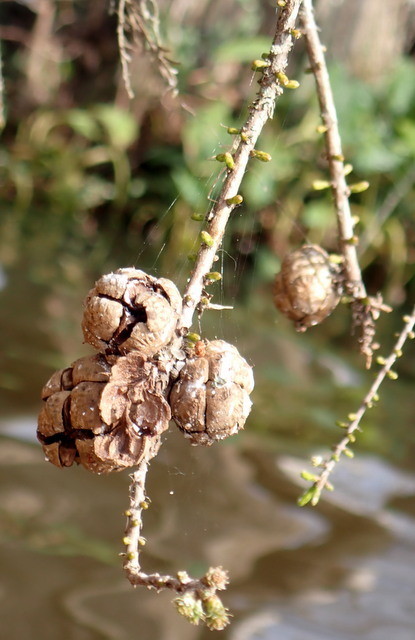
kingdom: Plantae
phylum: Tracheophyta
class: Pinopsida
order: Pinales
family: Cupressaceae
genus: Taxodium
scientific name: Taxodium distichum
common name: Bald cypress
